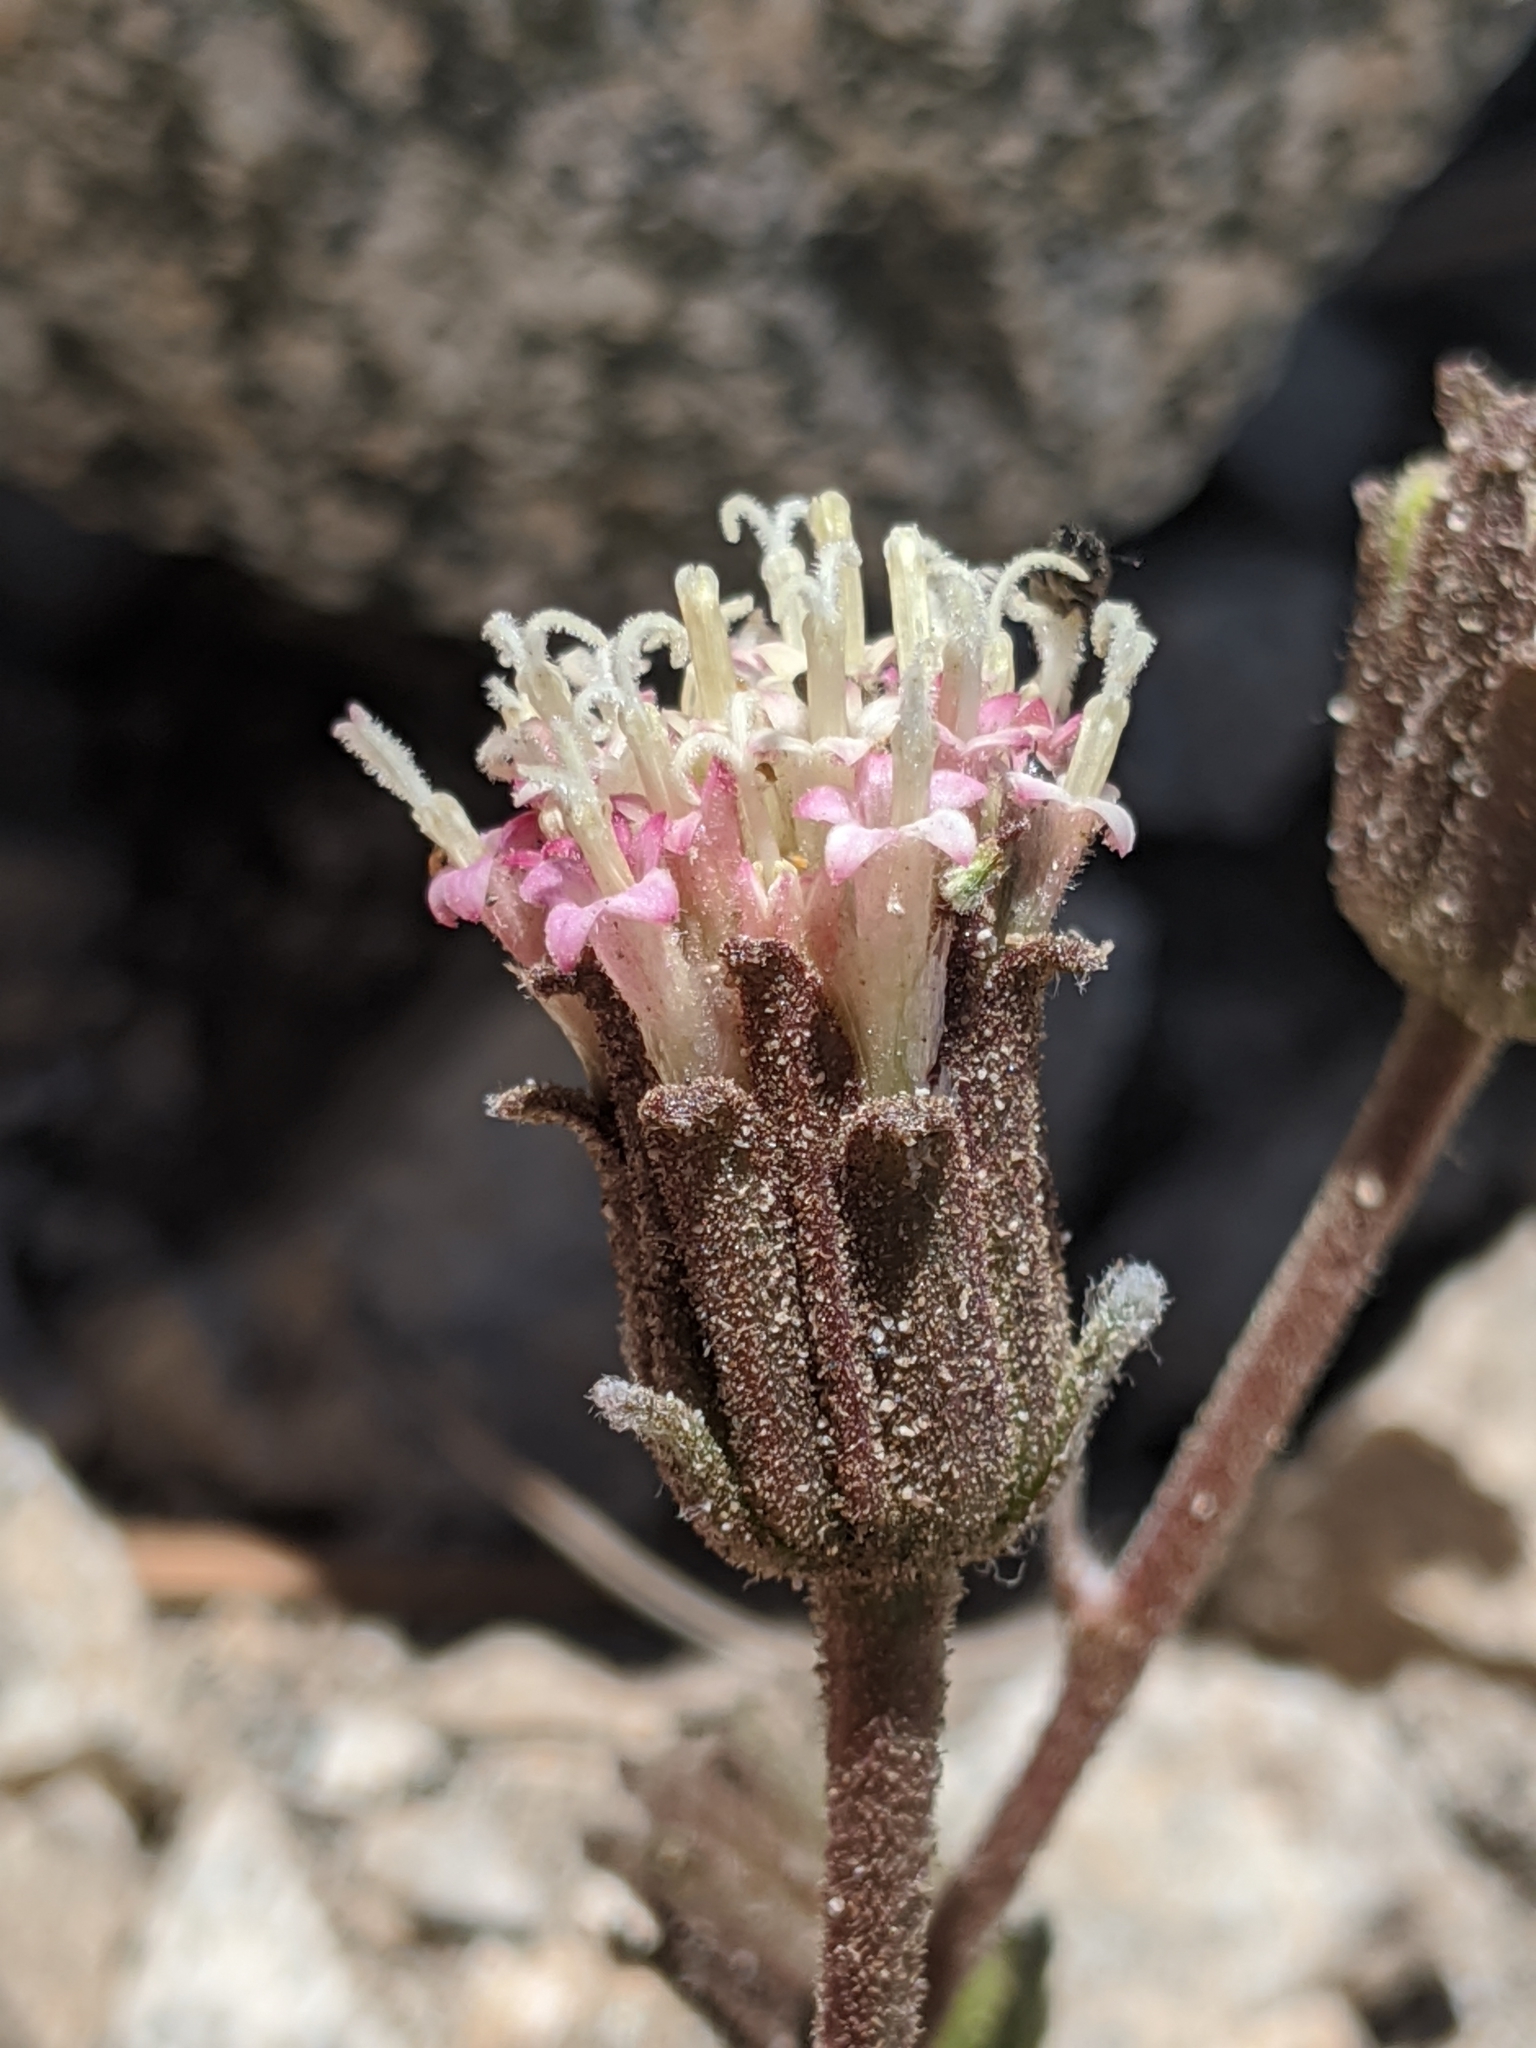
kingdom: Plantae
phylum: Tracheophyta
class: Magnoliopsida
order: Asterales
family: Asteraceae
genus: Chaenactis
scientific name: Chaenactis santolinoides
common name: Santolina pincushion
